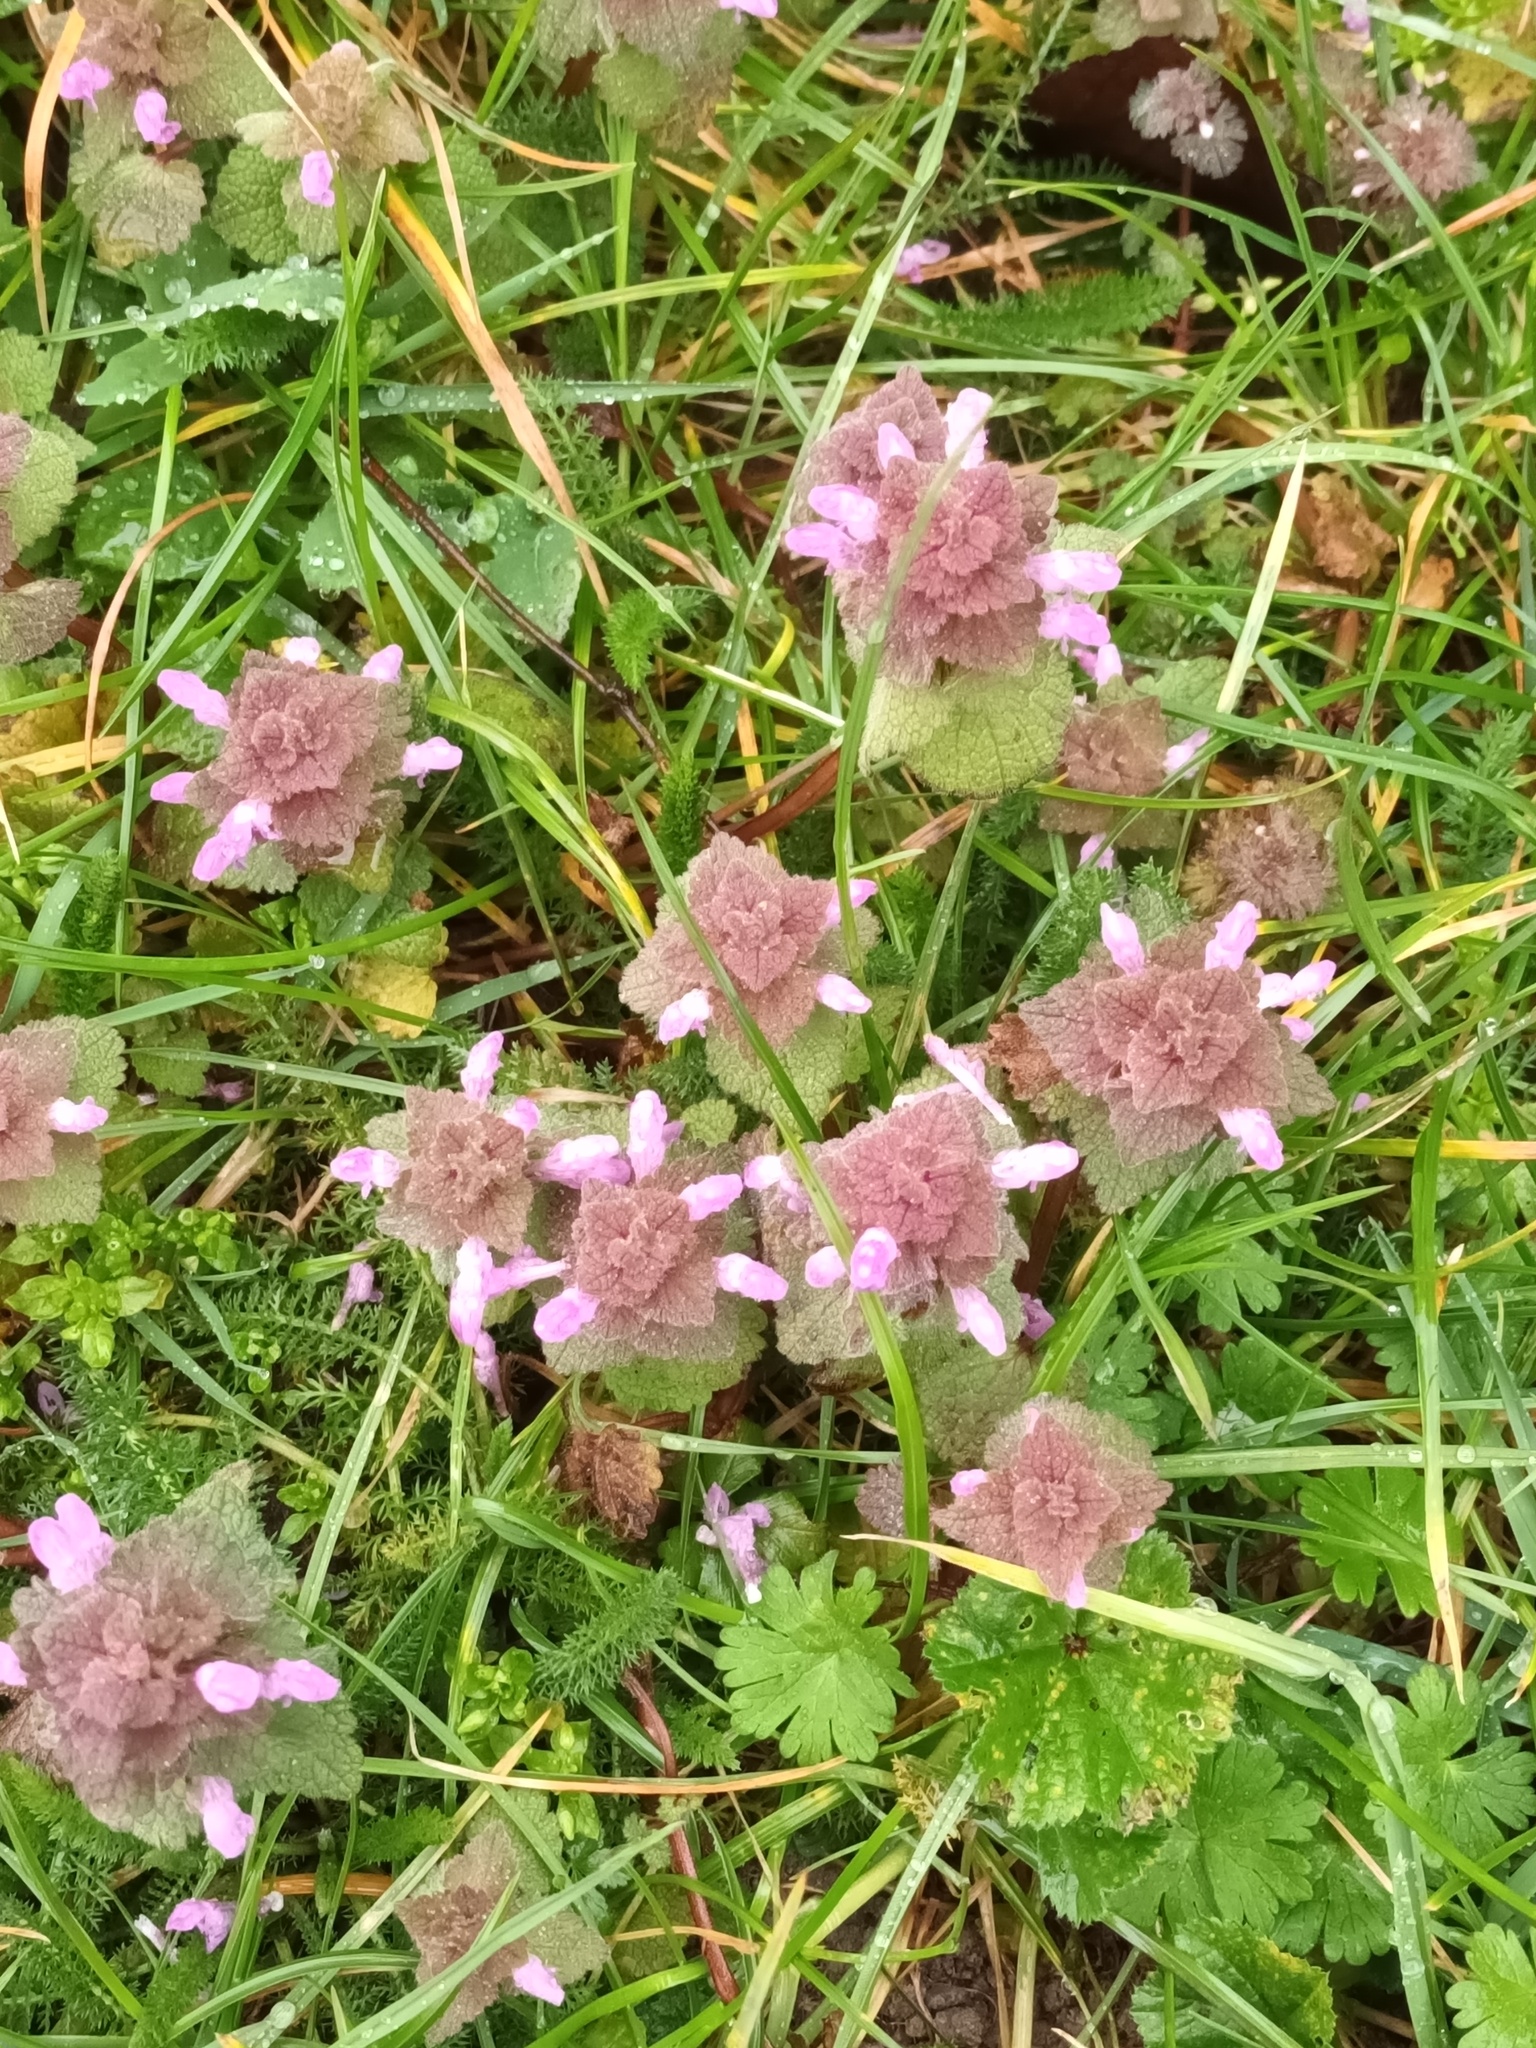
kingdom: Plantae
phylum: Tracheophyta
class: Magnoliopsida
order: Lamiales
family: Lamiaceae
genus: Lamium
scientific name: Lamium purpureum
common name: Red dead-nettle
